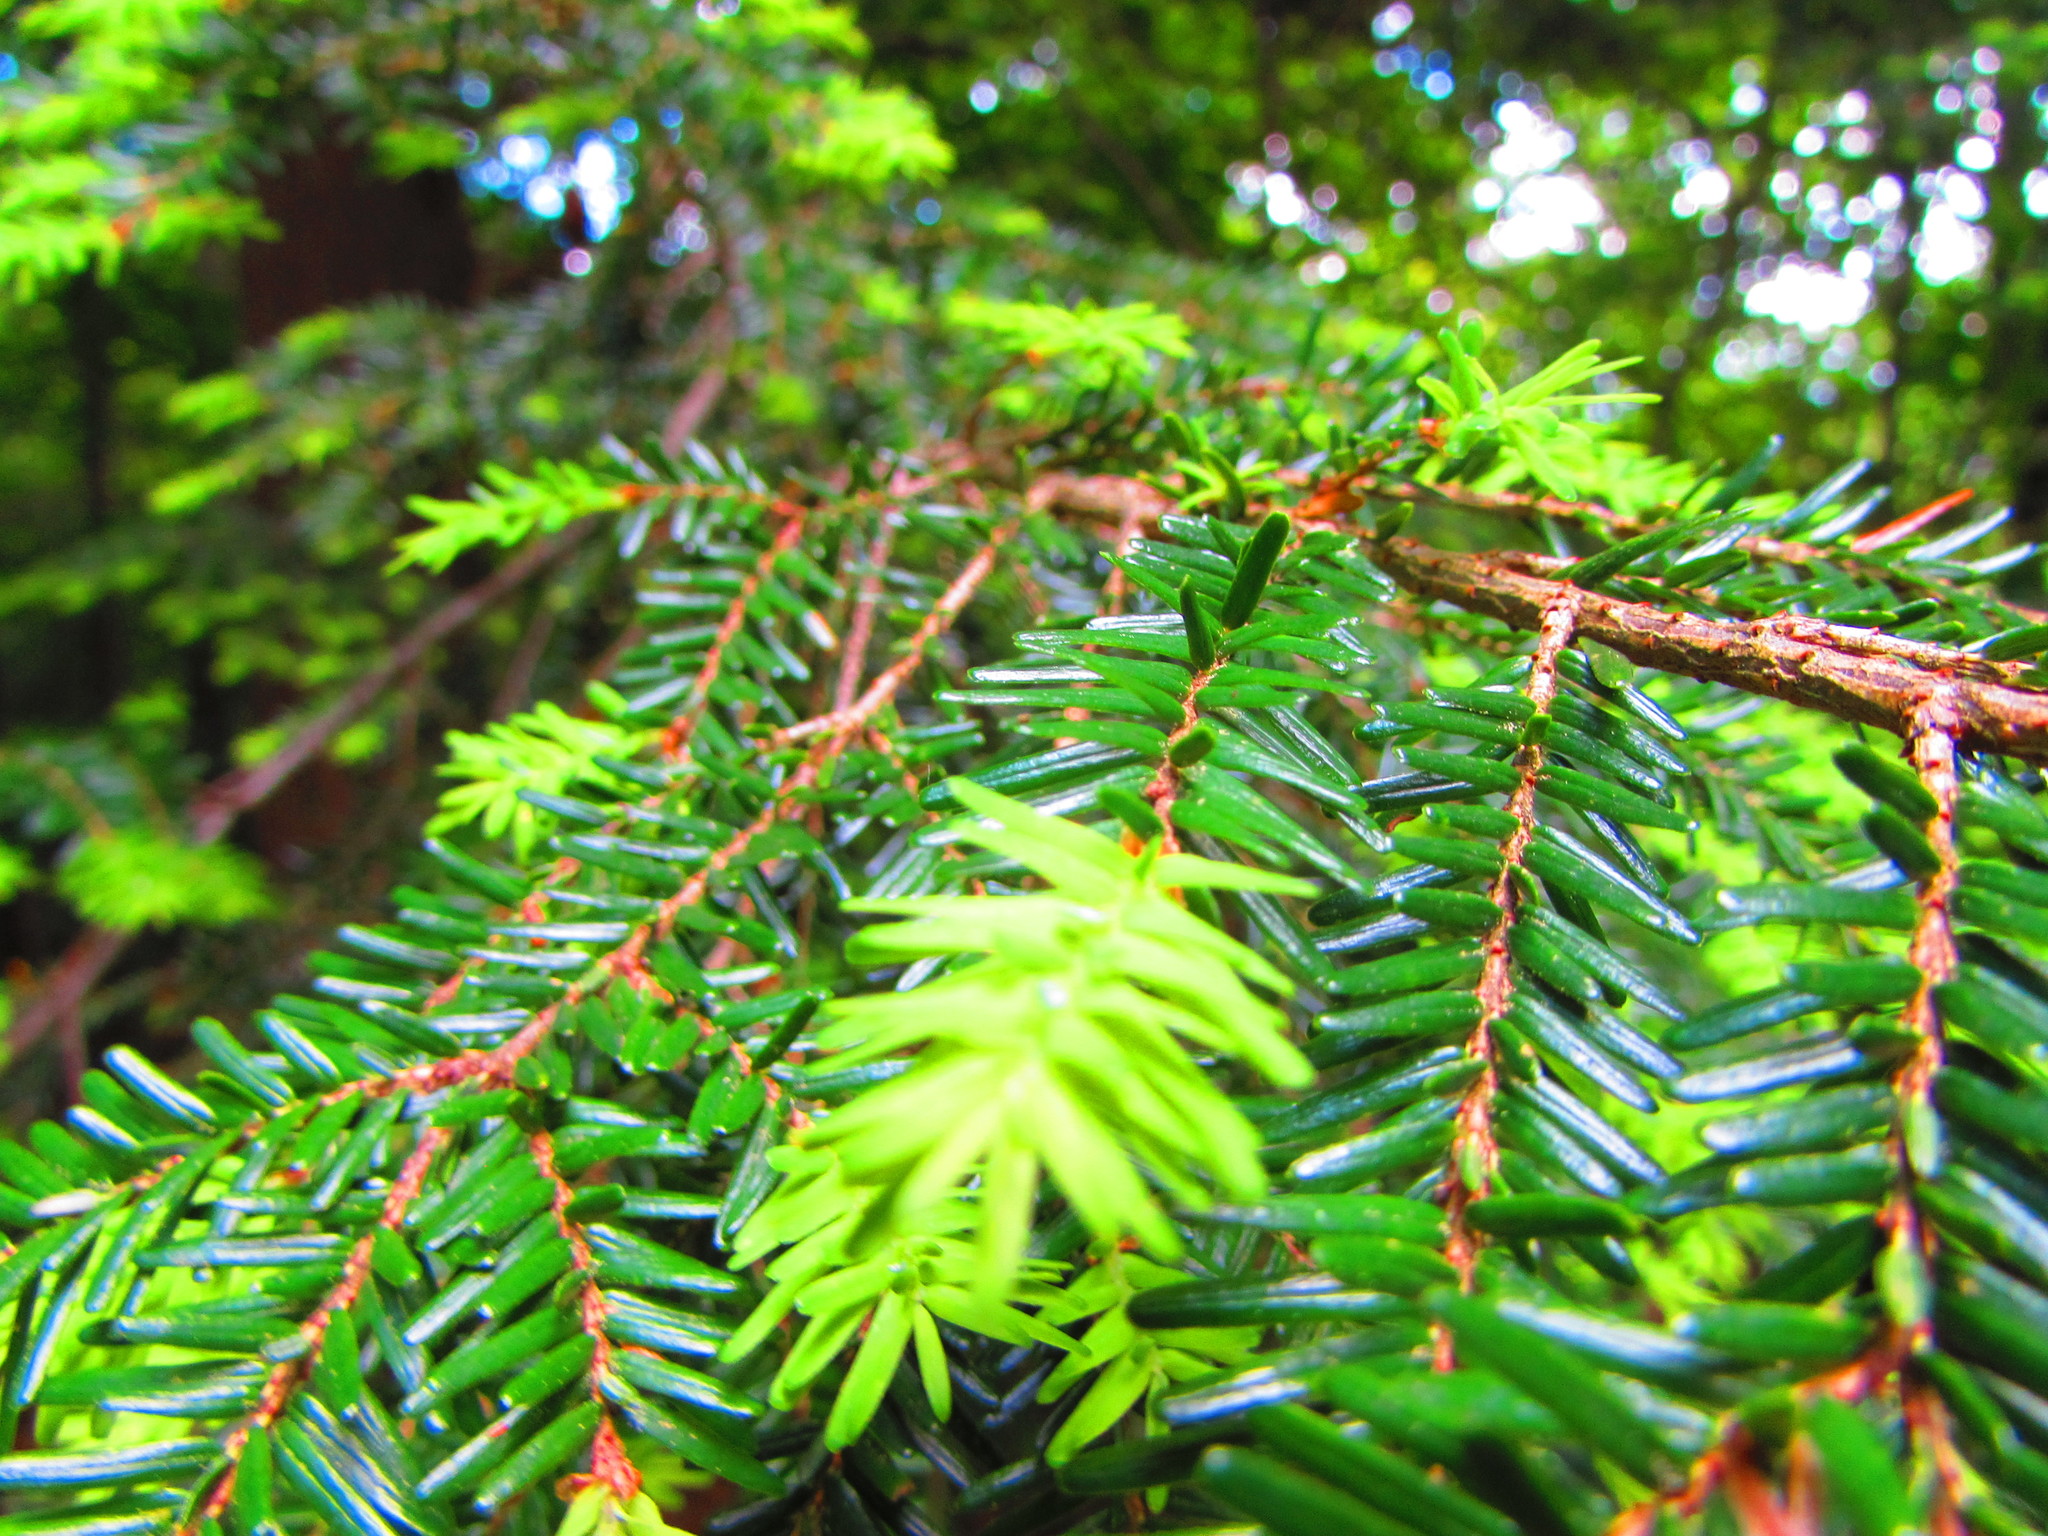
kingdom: Plantae
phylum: Tracheophyta
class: Pinopsida
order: Pinales
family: Pinaceae
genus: Tsuga
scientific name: Tsuga canadensis
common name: Eastern hemlock
